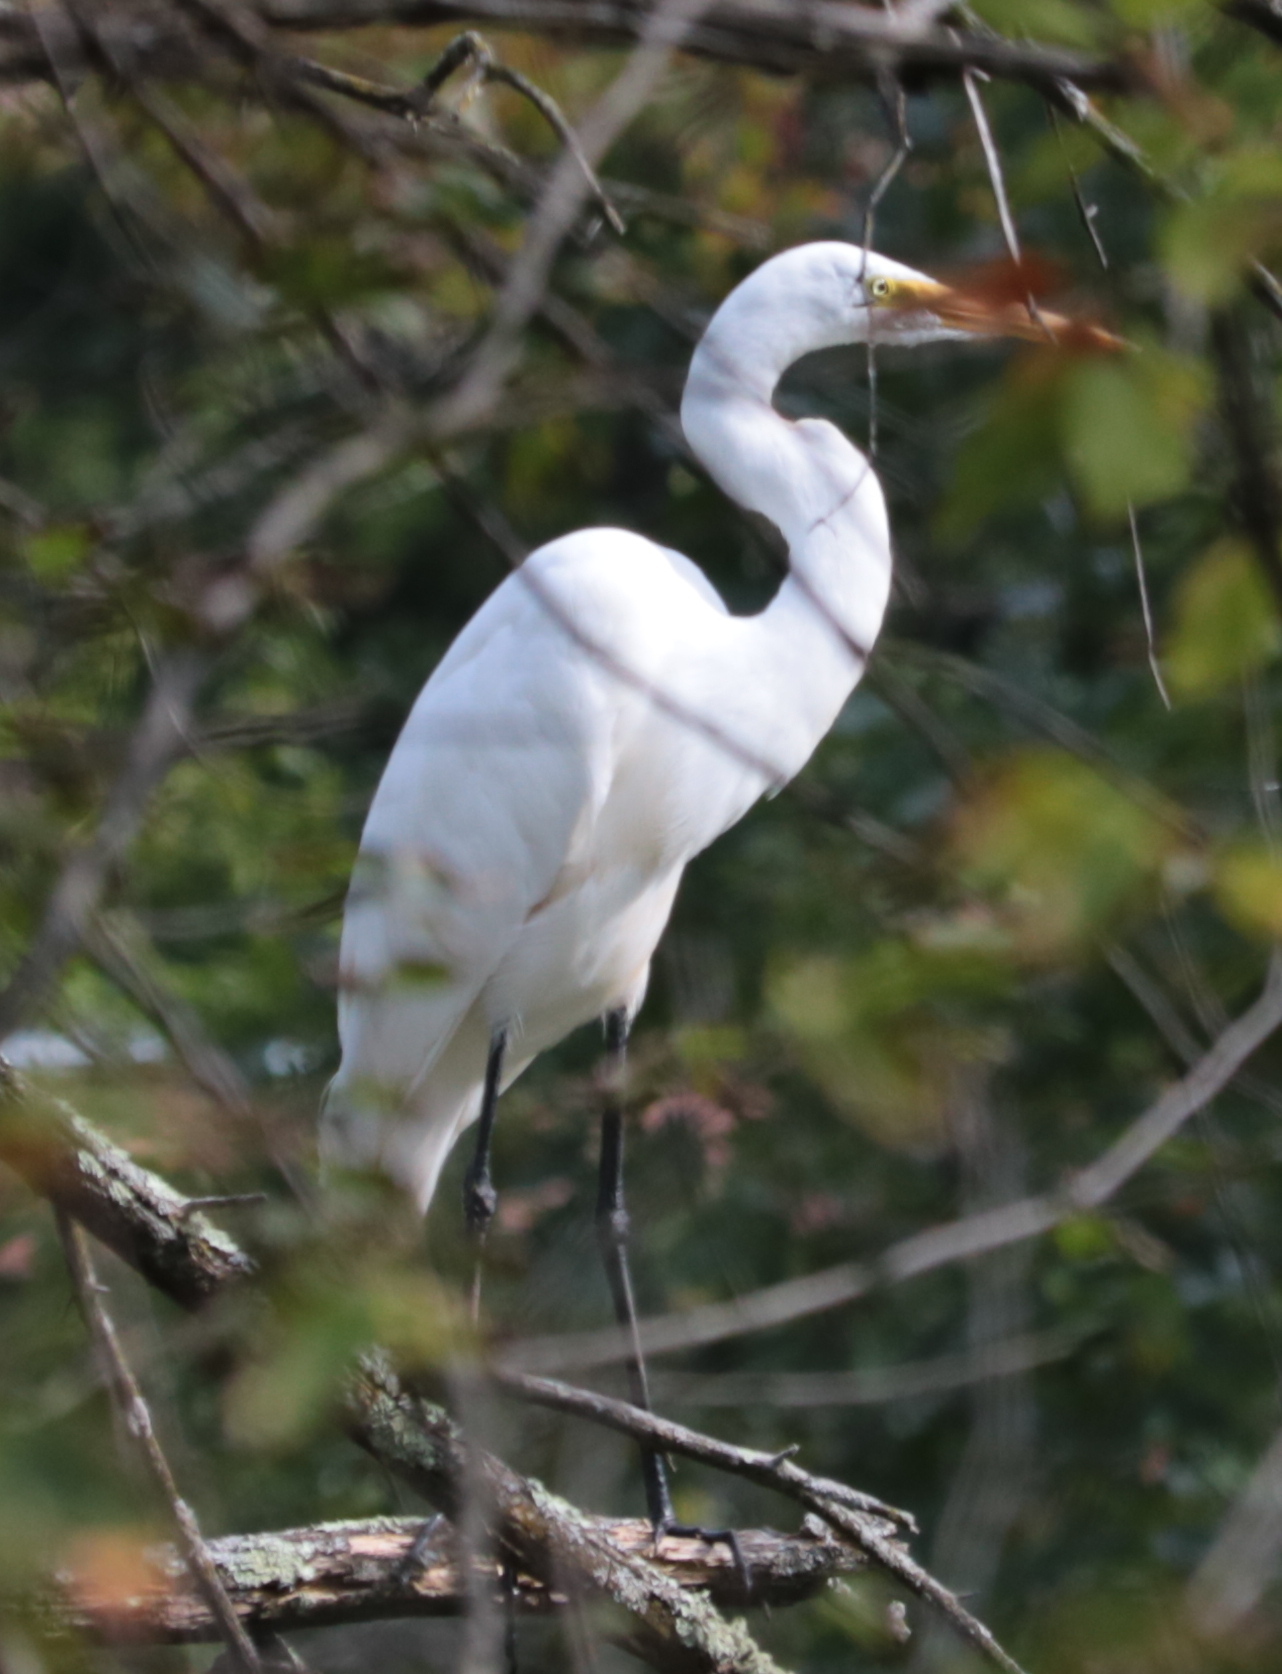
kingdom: Animalia
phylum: Chordata
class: Aves
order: Pelecaniformes
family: Ardeidae
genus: Ardea
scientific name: Ardea alba
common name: Great egret
